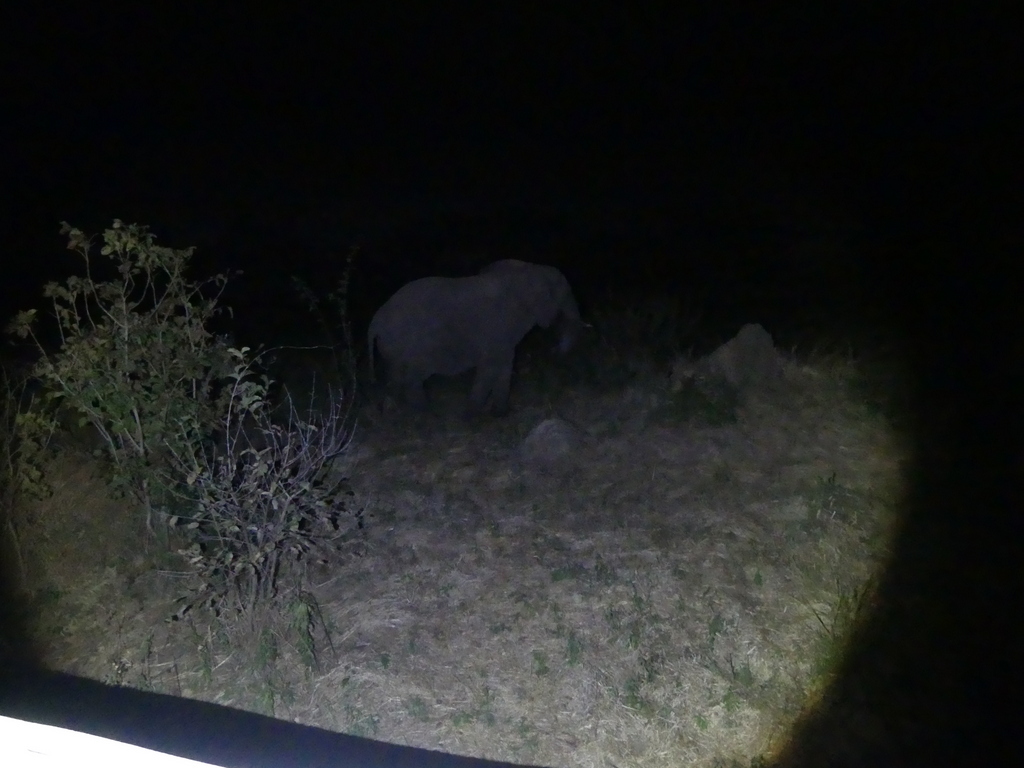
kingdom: Animalia
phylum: Chordata
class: Mammalia
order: Proboscidea
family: Elephantidae
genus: Loxodonta
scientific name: Loxodonta africana
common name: African elephant
